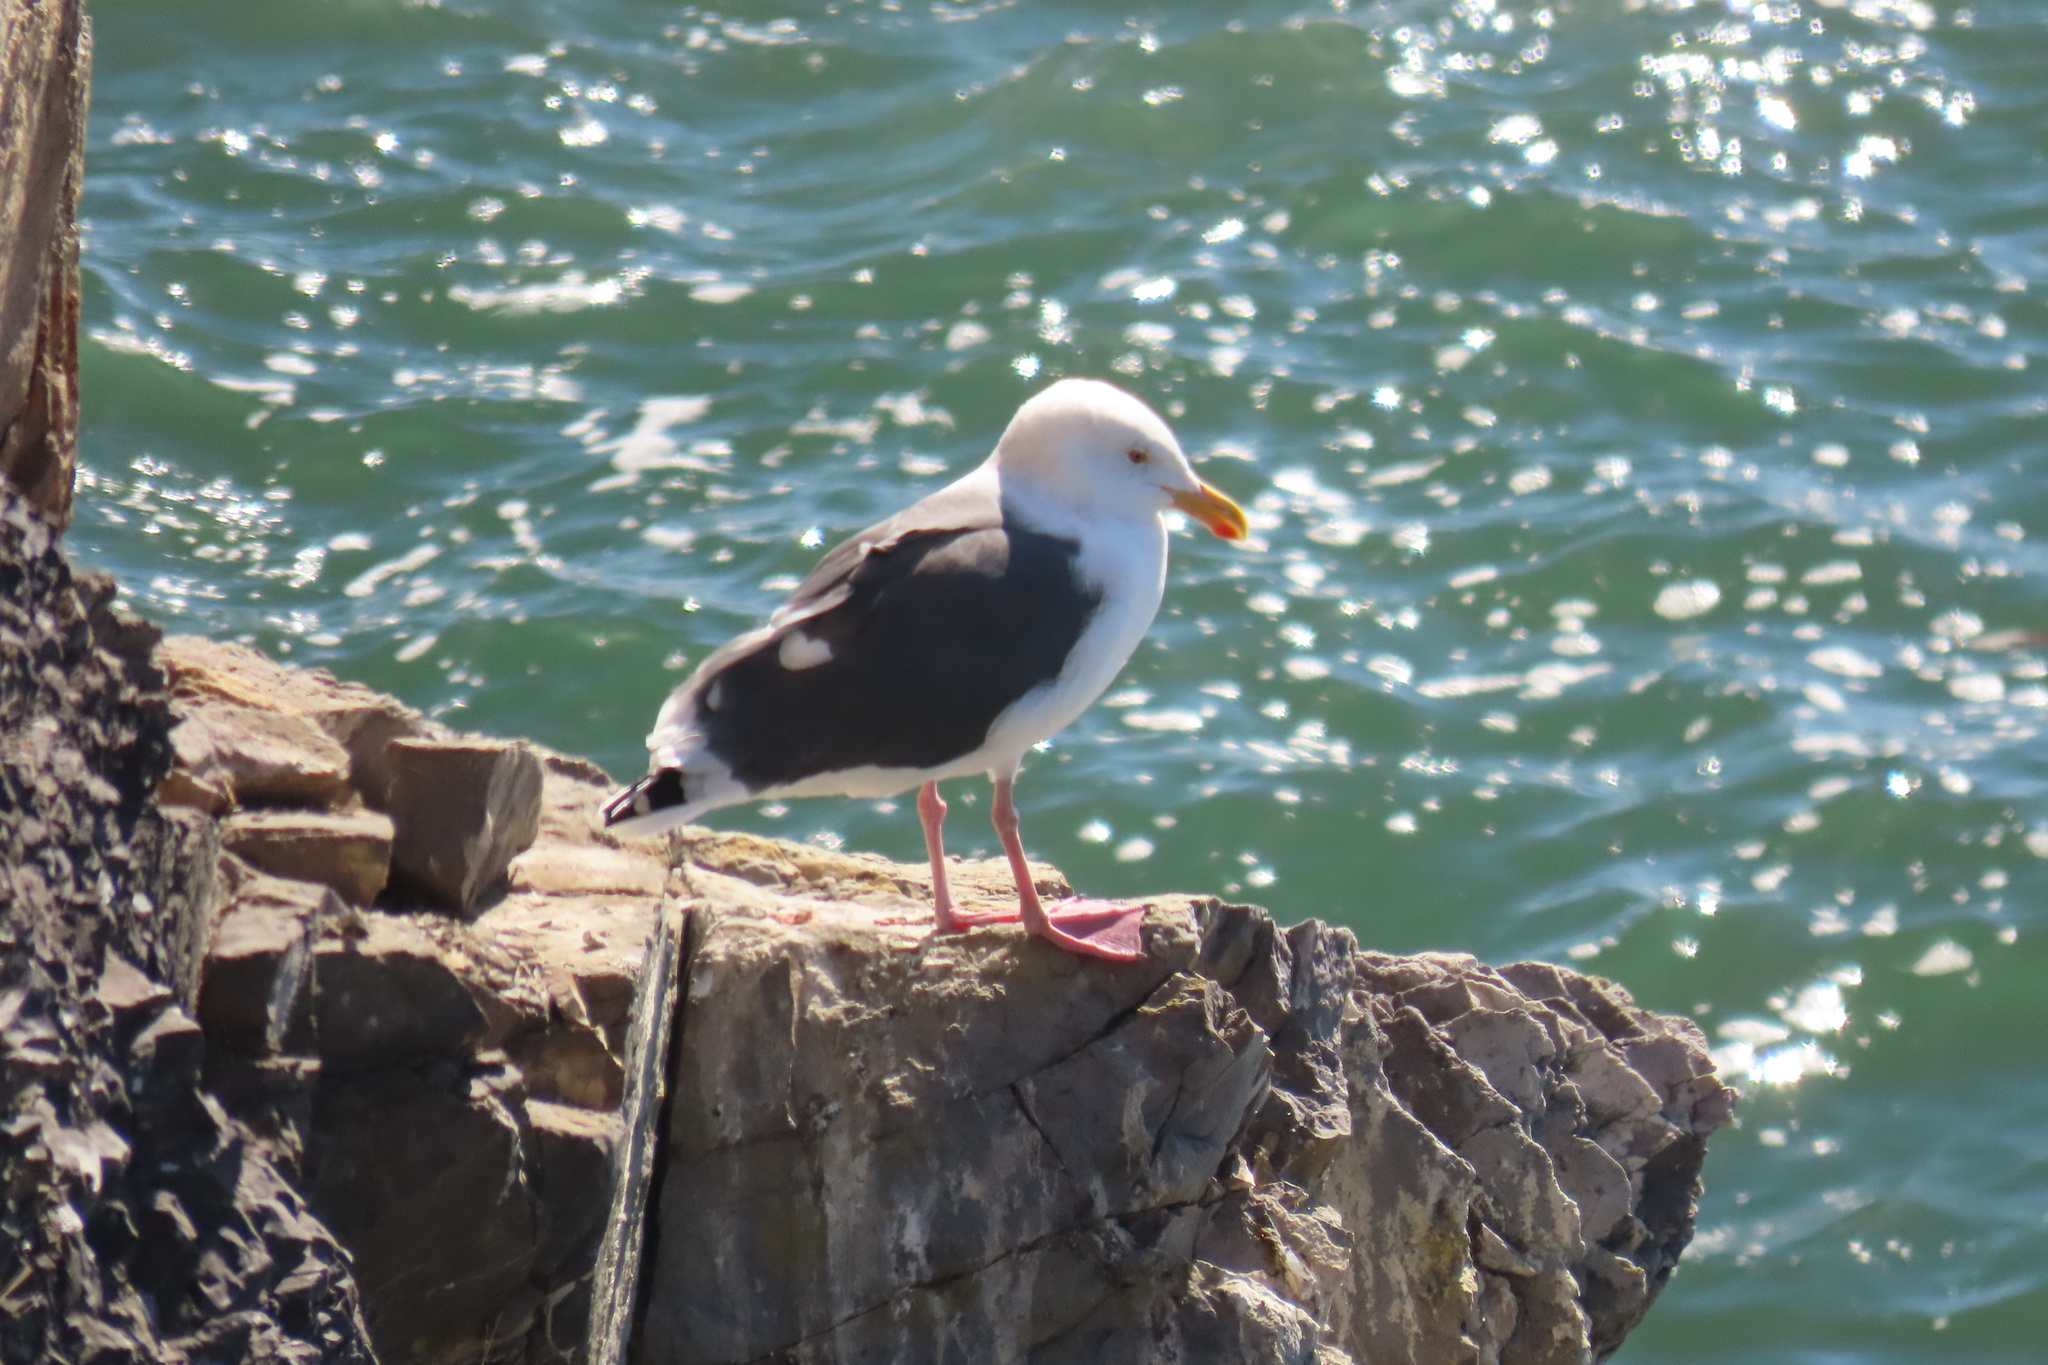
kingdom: Animalia
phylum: Chordata
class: Aves
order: Charadriiformes
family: Laridae
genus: Larus
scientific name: Larus occidentalis
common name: Western gull
